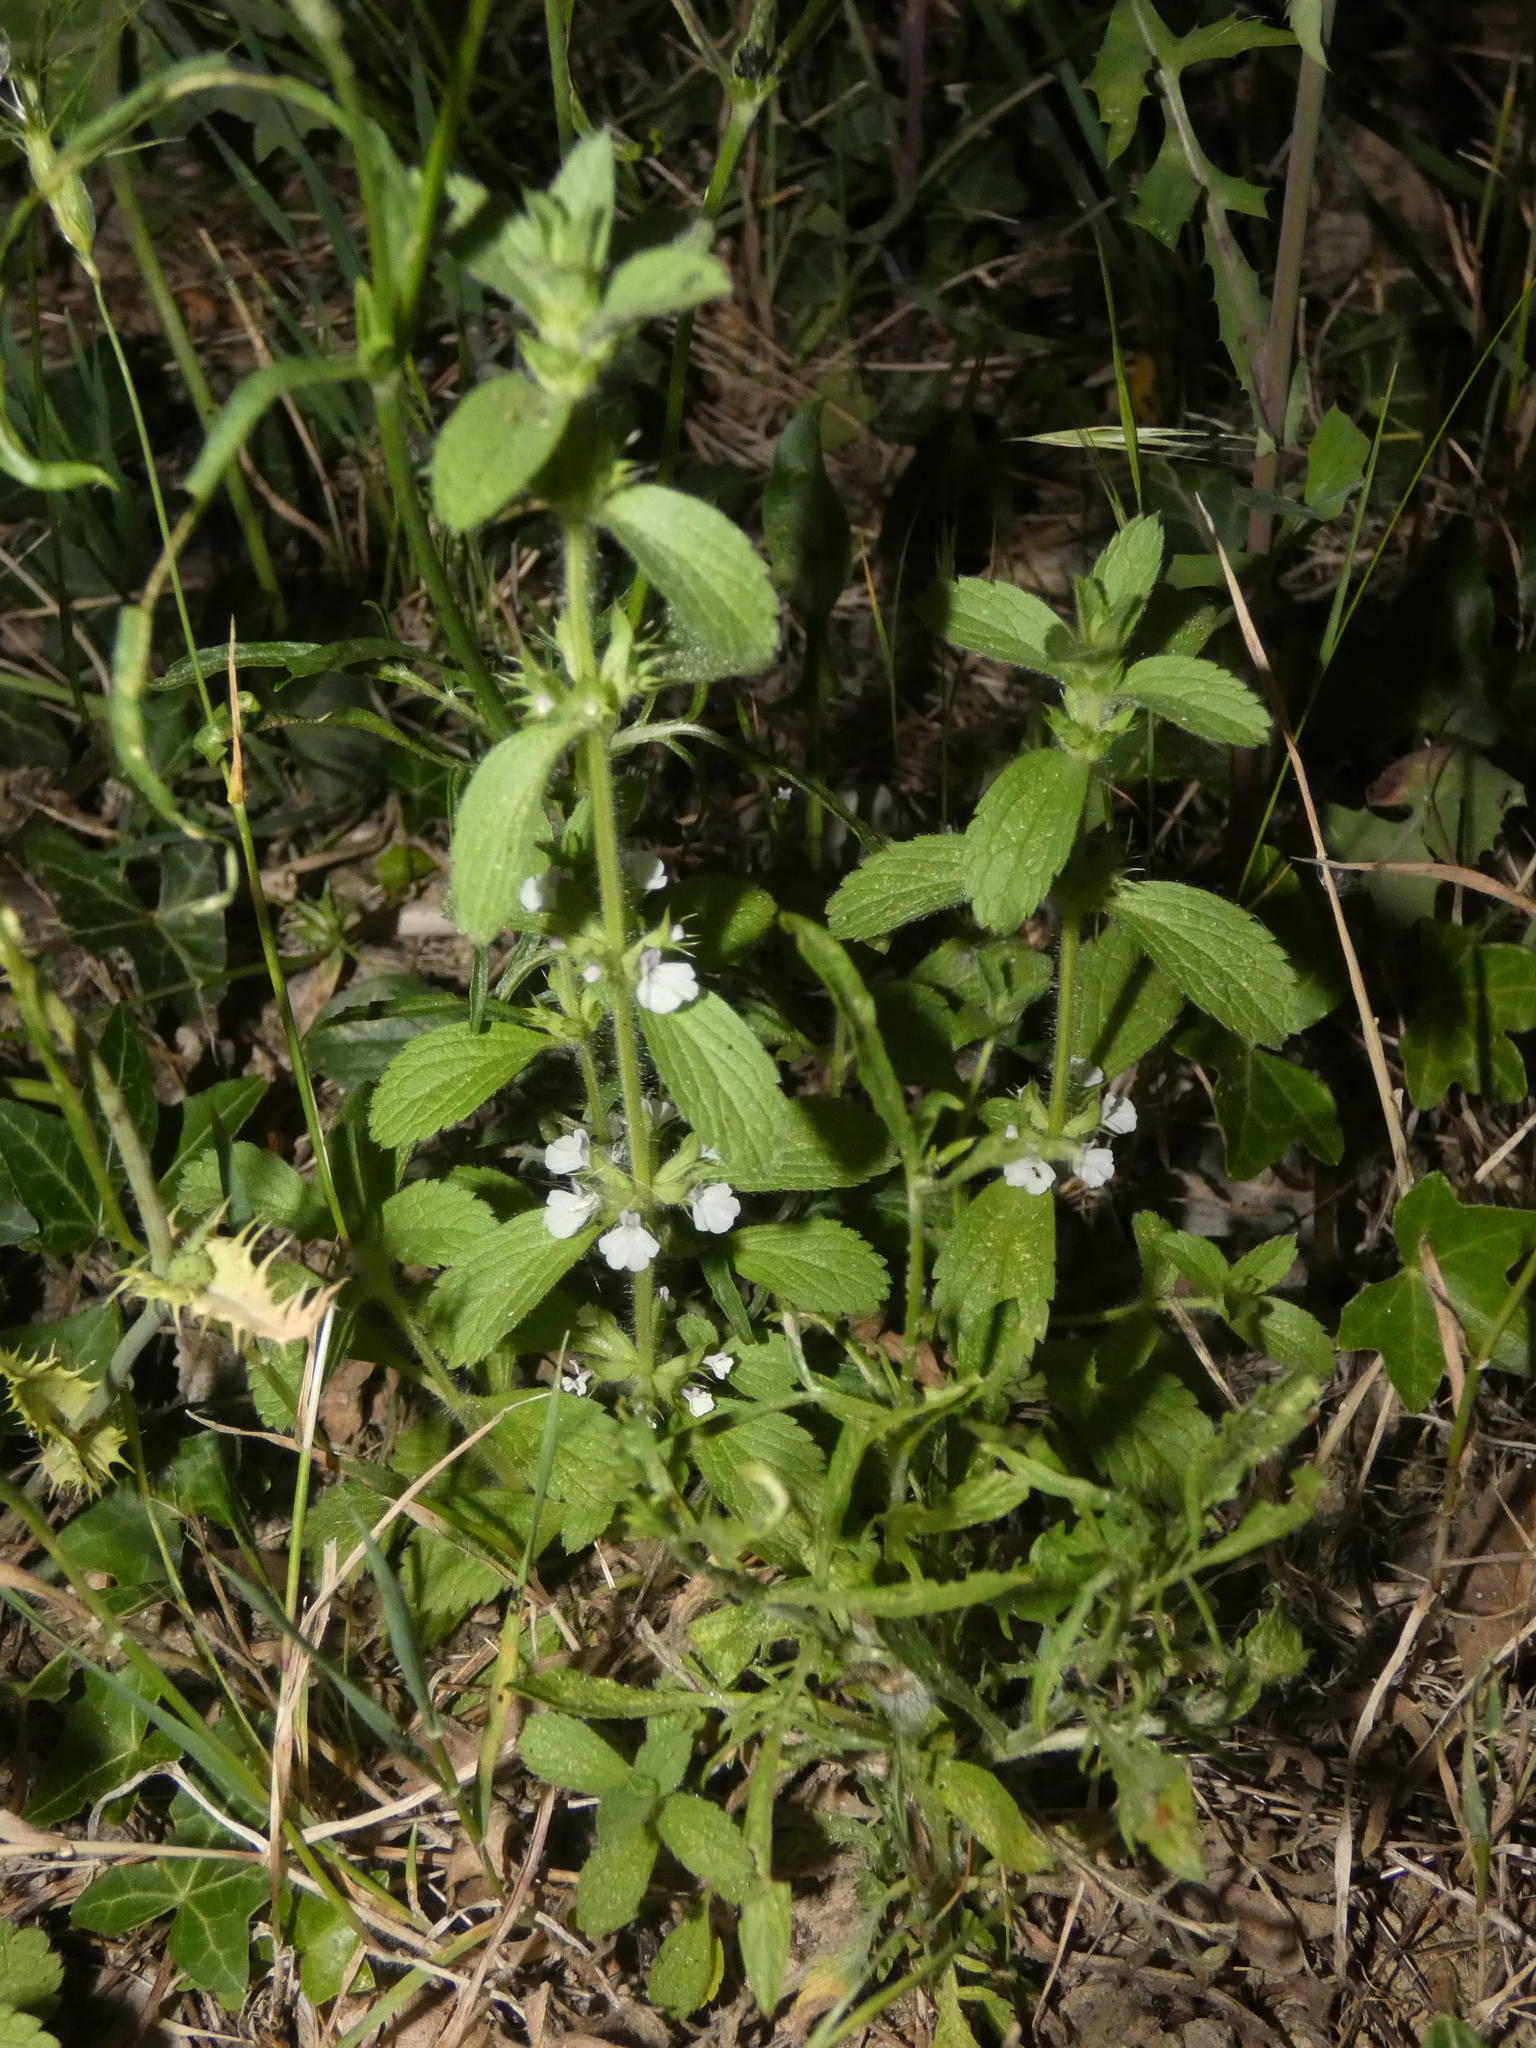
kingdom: Plantae
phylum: Tracheophyta
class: Magnoliopsida
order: Lamiales
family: Lamiaceae
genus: Sideritis
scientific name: Sideritis romana
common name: Simplebeak ironwort
